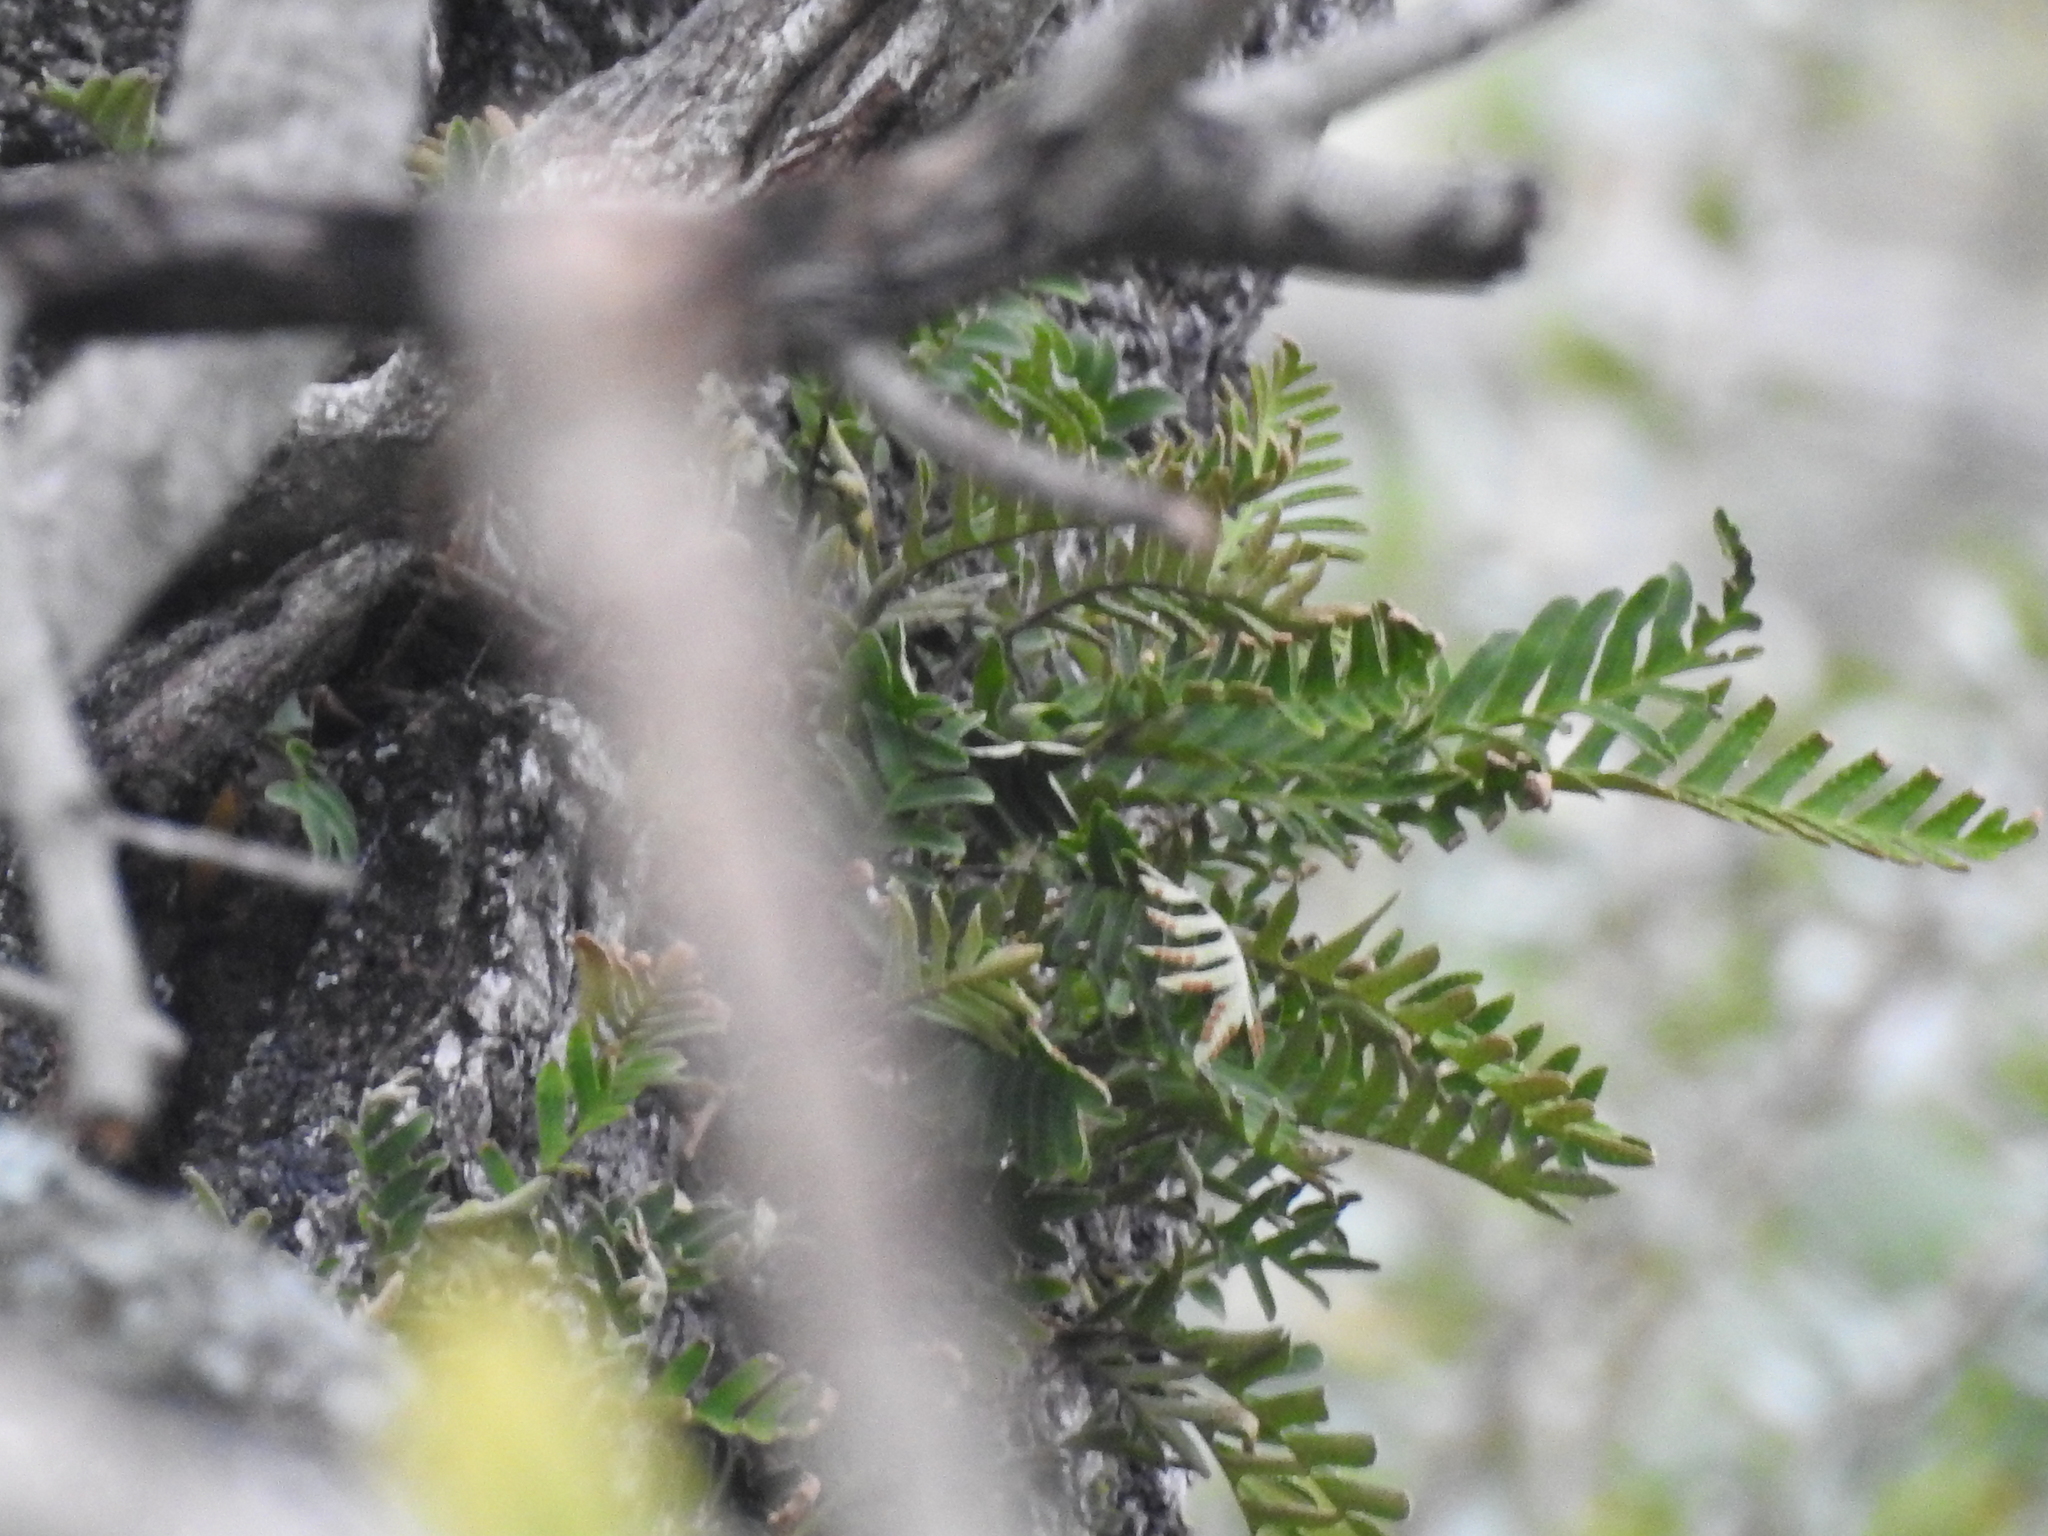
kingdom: Plantae
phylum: Tracheophyta
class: Polypodiopsida
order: Polypodiales
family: Polypodiaceae
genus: Pleopeltis
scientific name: Pleopeltis michauxiana
